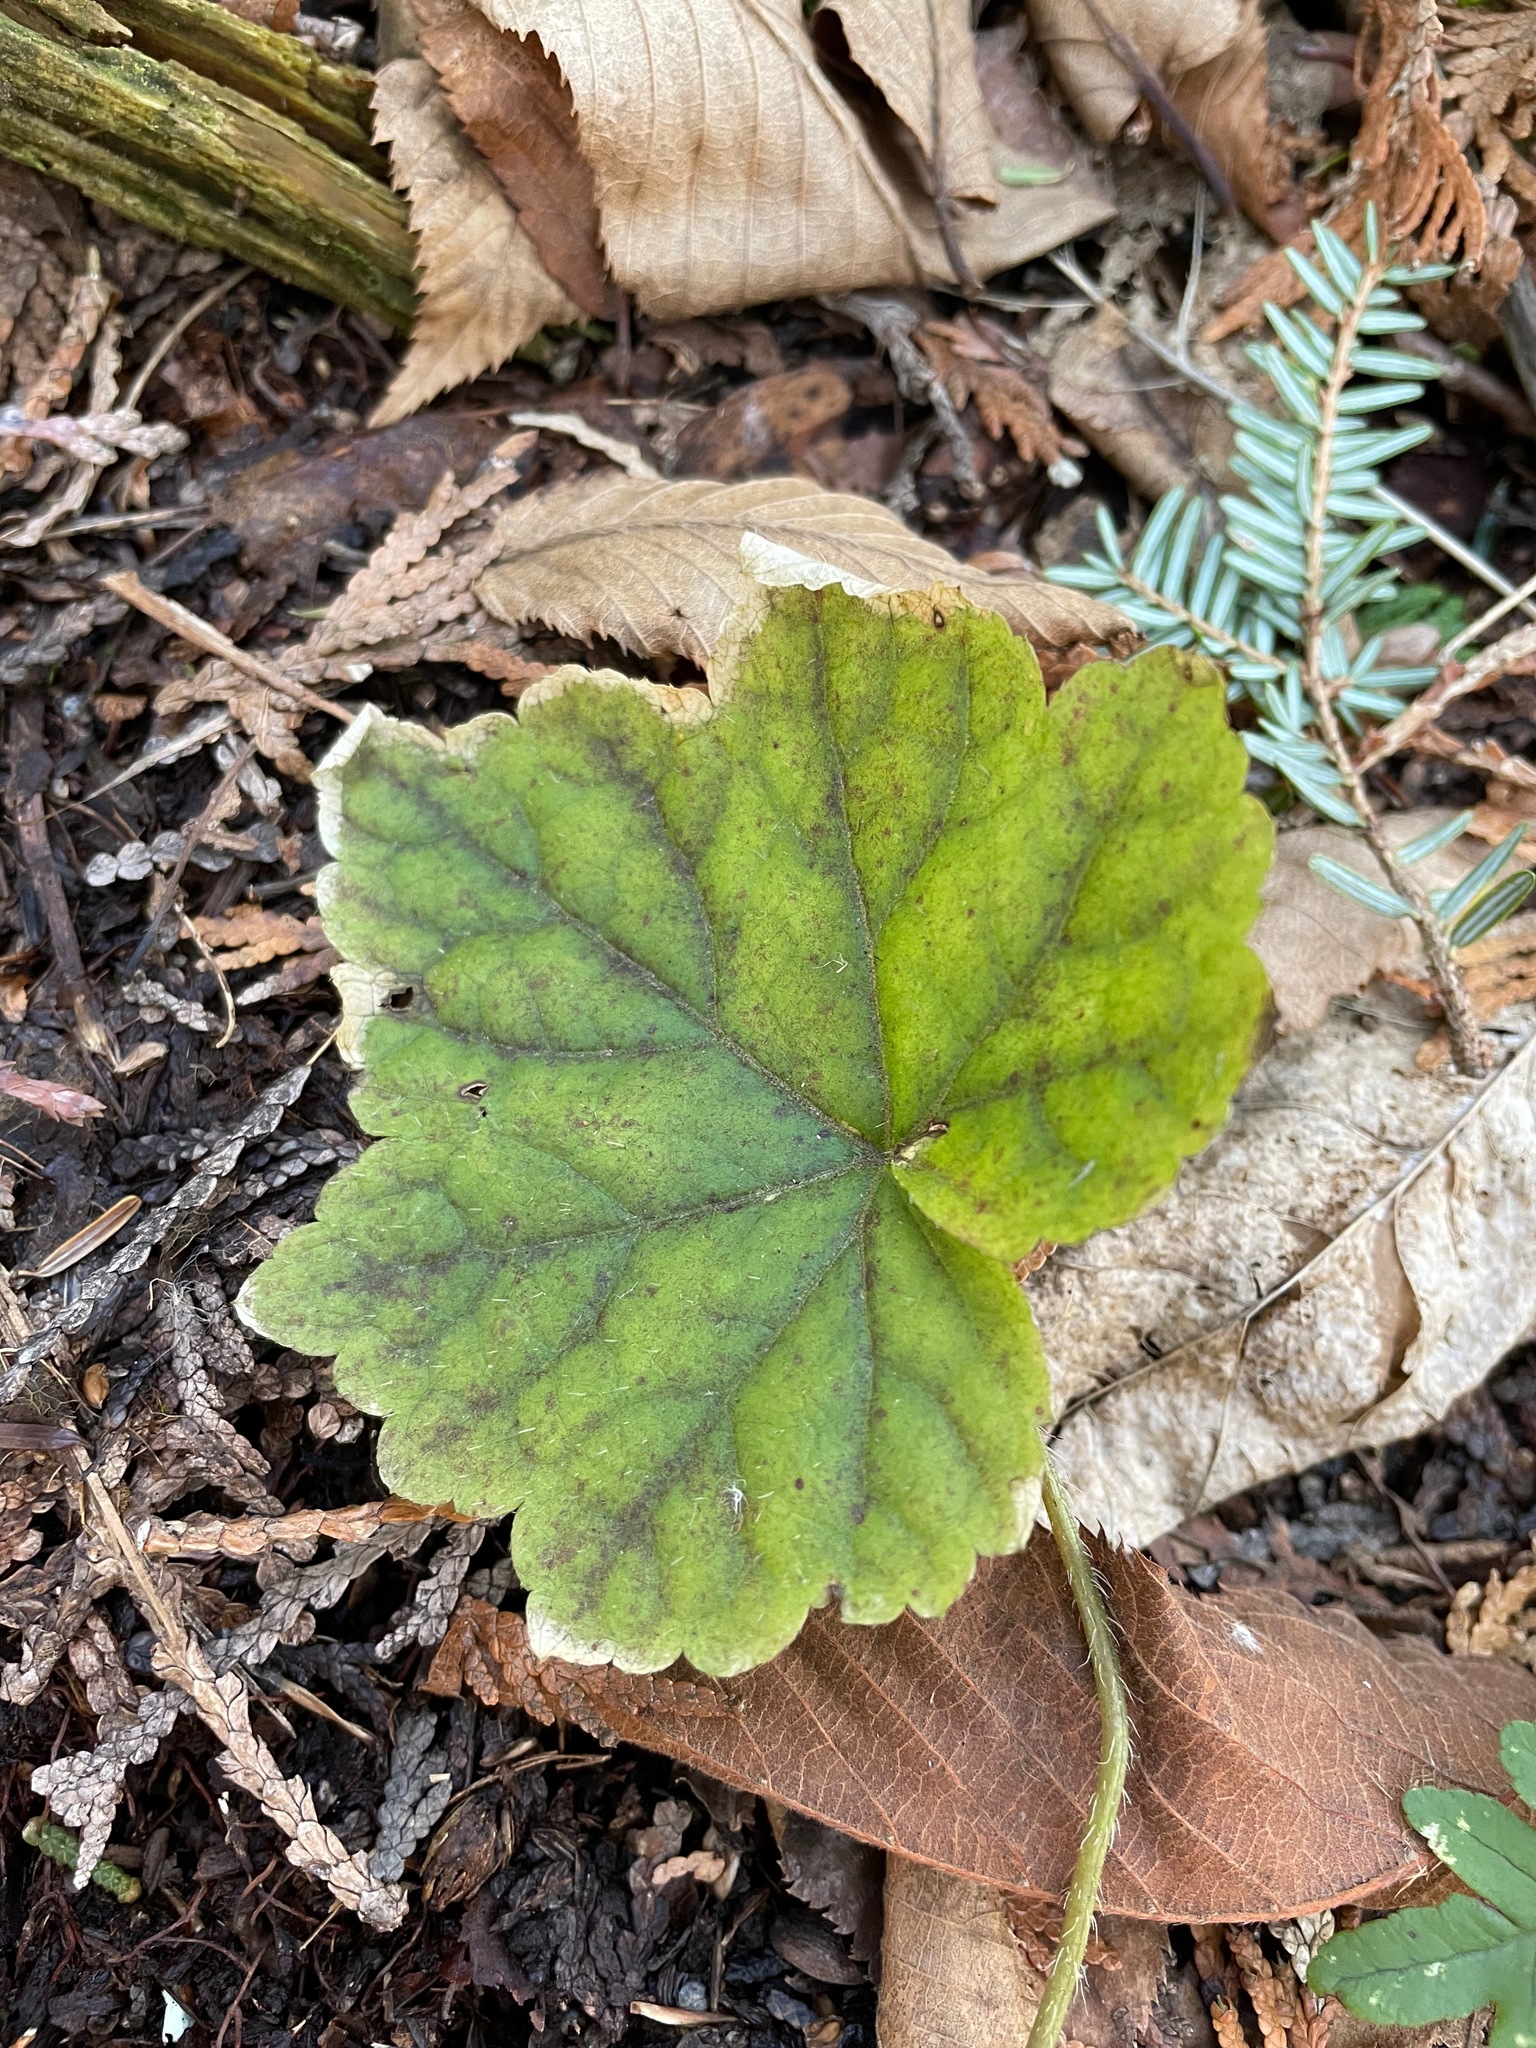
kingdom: Plantae
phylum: Tracheophyta
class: Magnoliopsida
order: Saxifragales
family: Saxifragaceae
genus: Mitella
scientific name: Mitella diphylla
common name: Coolwort
